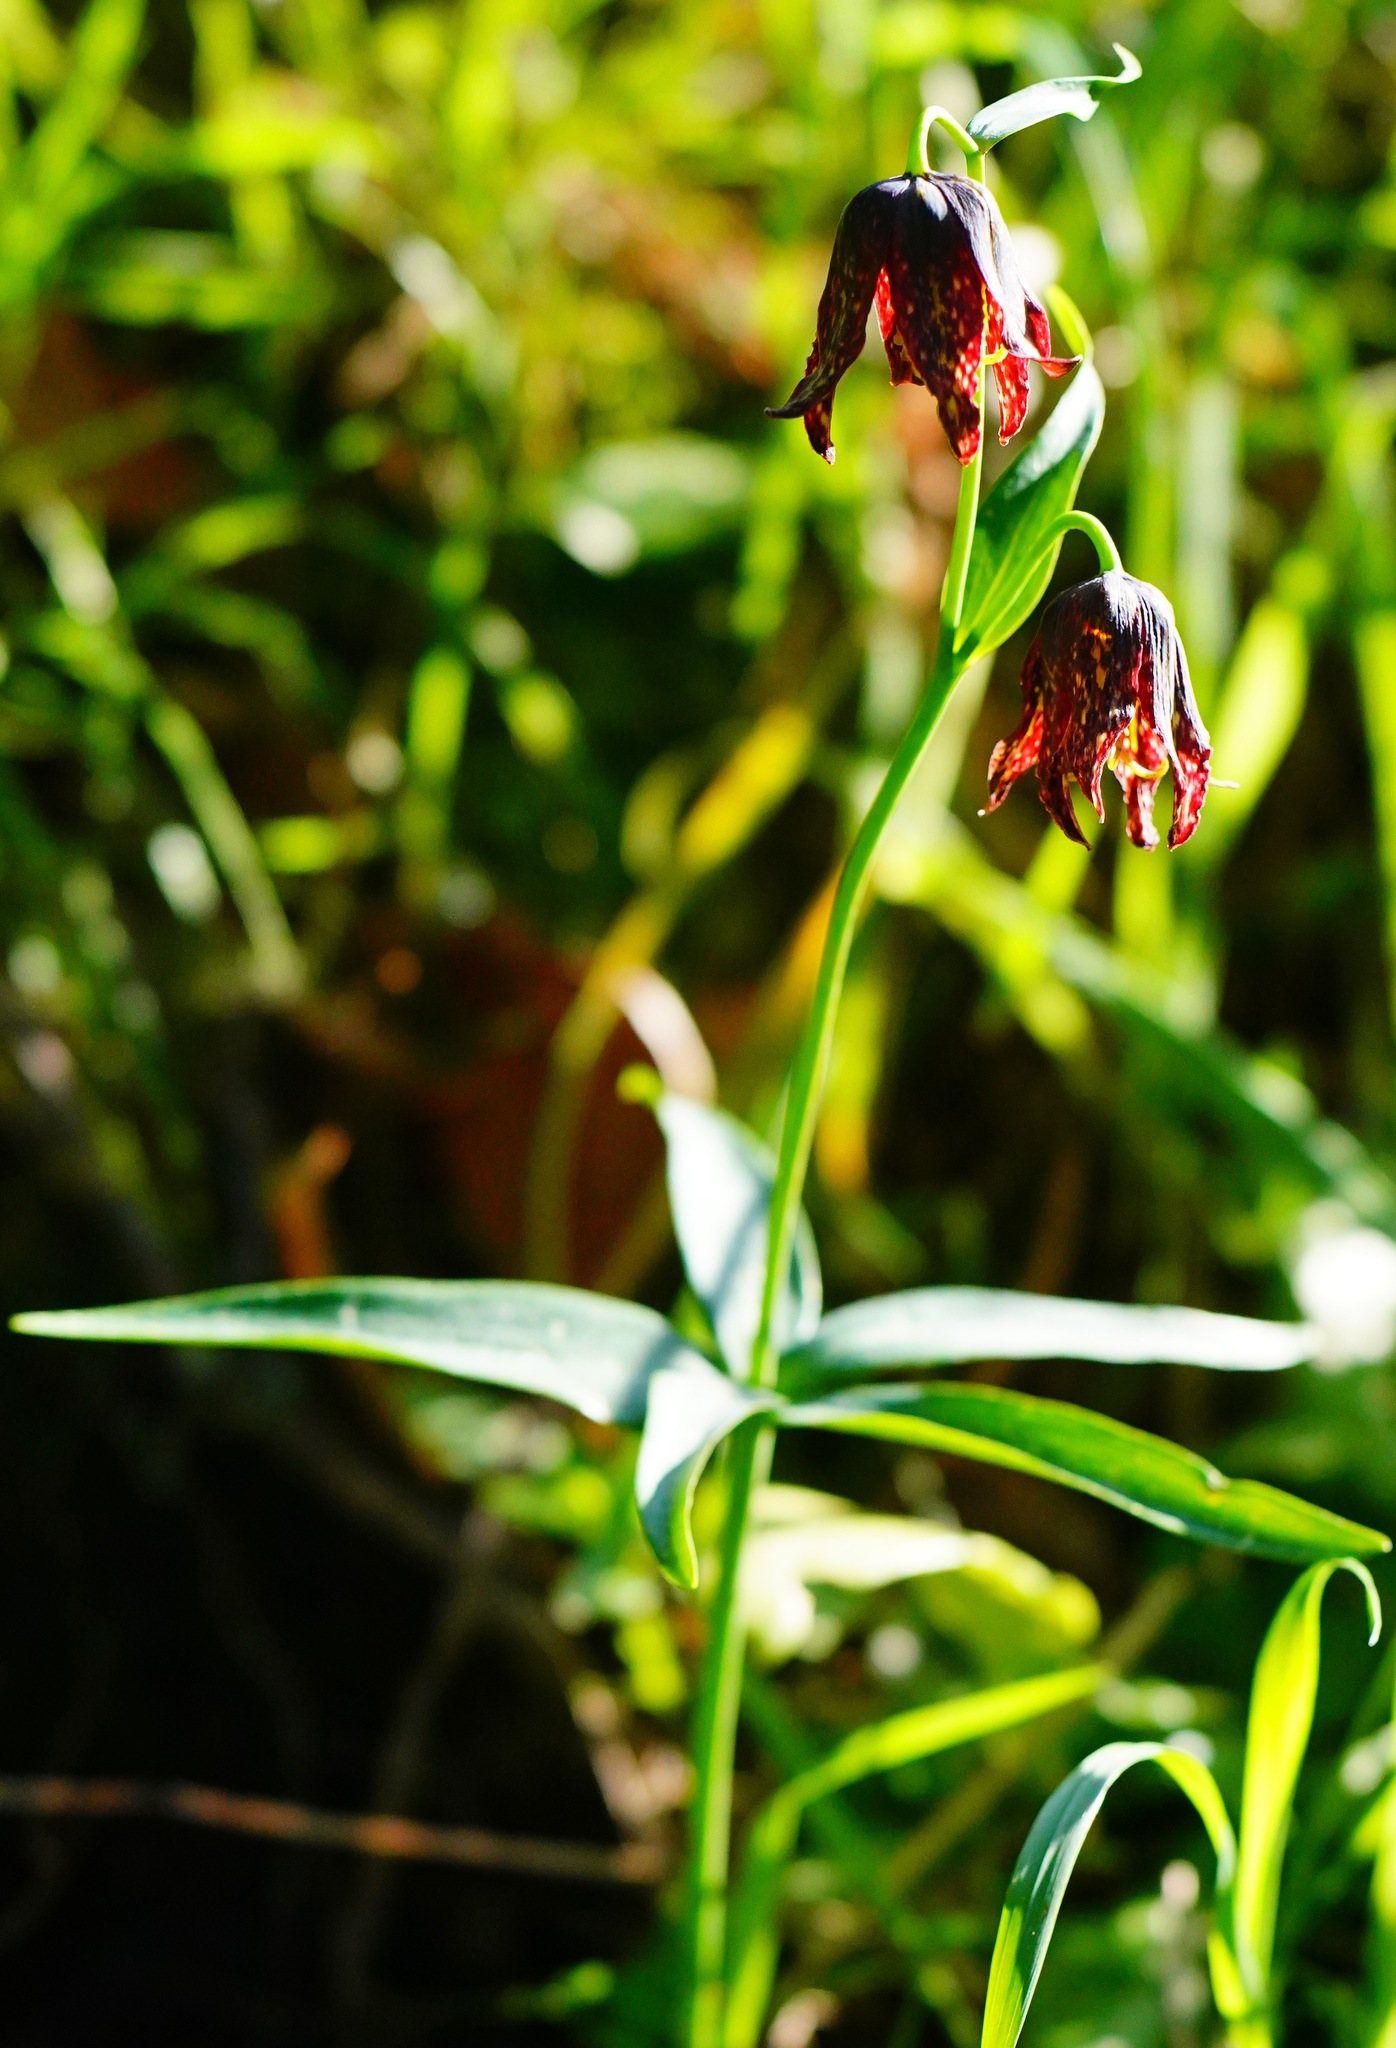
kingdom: Plantae
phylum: Tracheophyta
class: Liliopsida
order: Liliales
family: Liliaceae
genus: Fritillaria
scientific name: Fritillaria affinis
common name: Ojai fritillary
